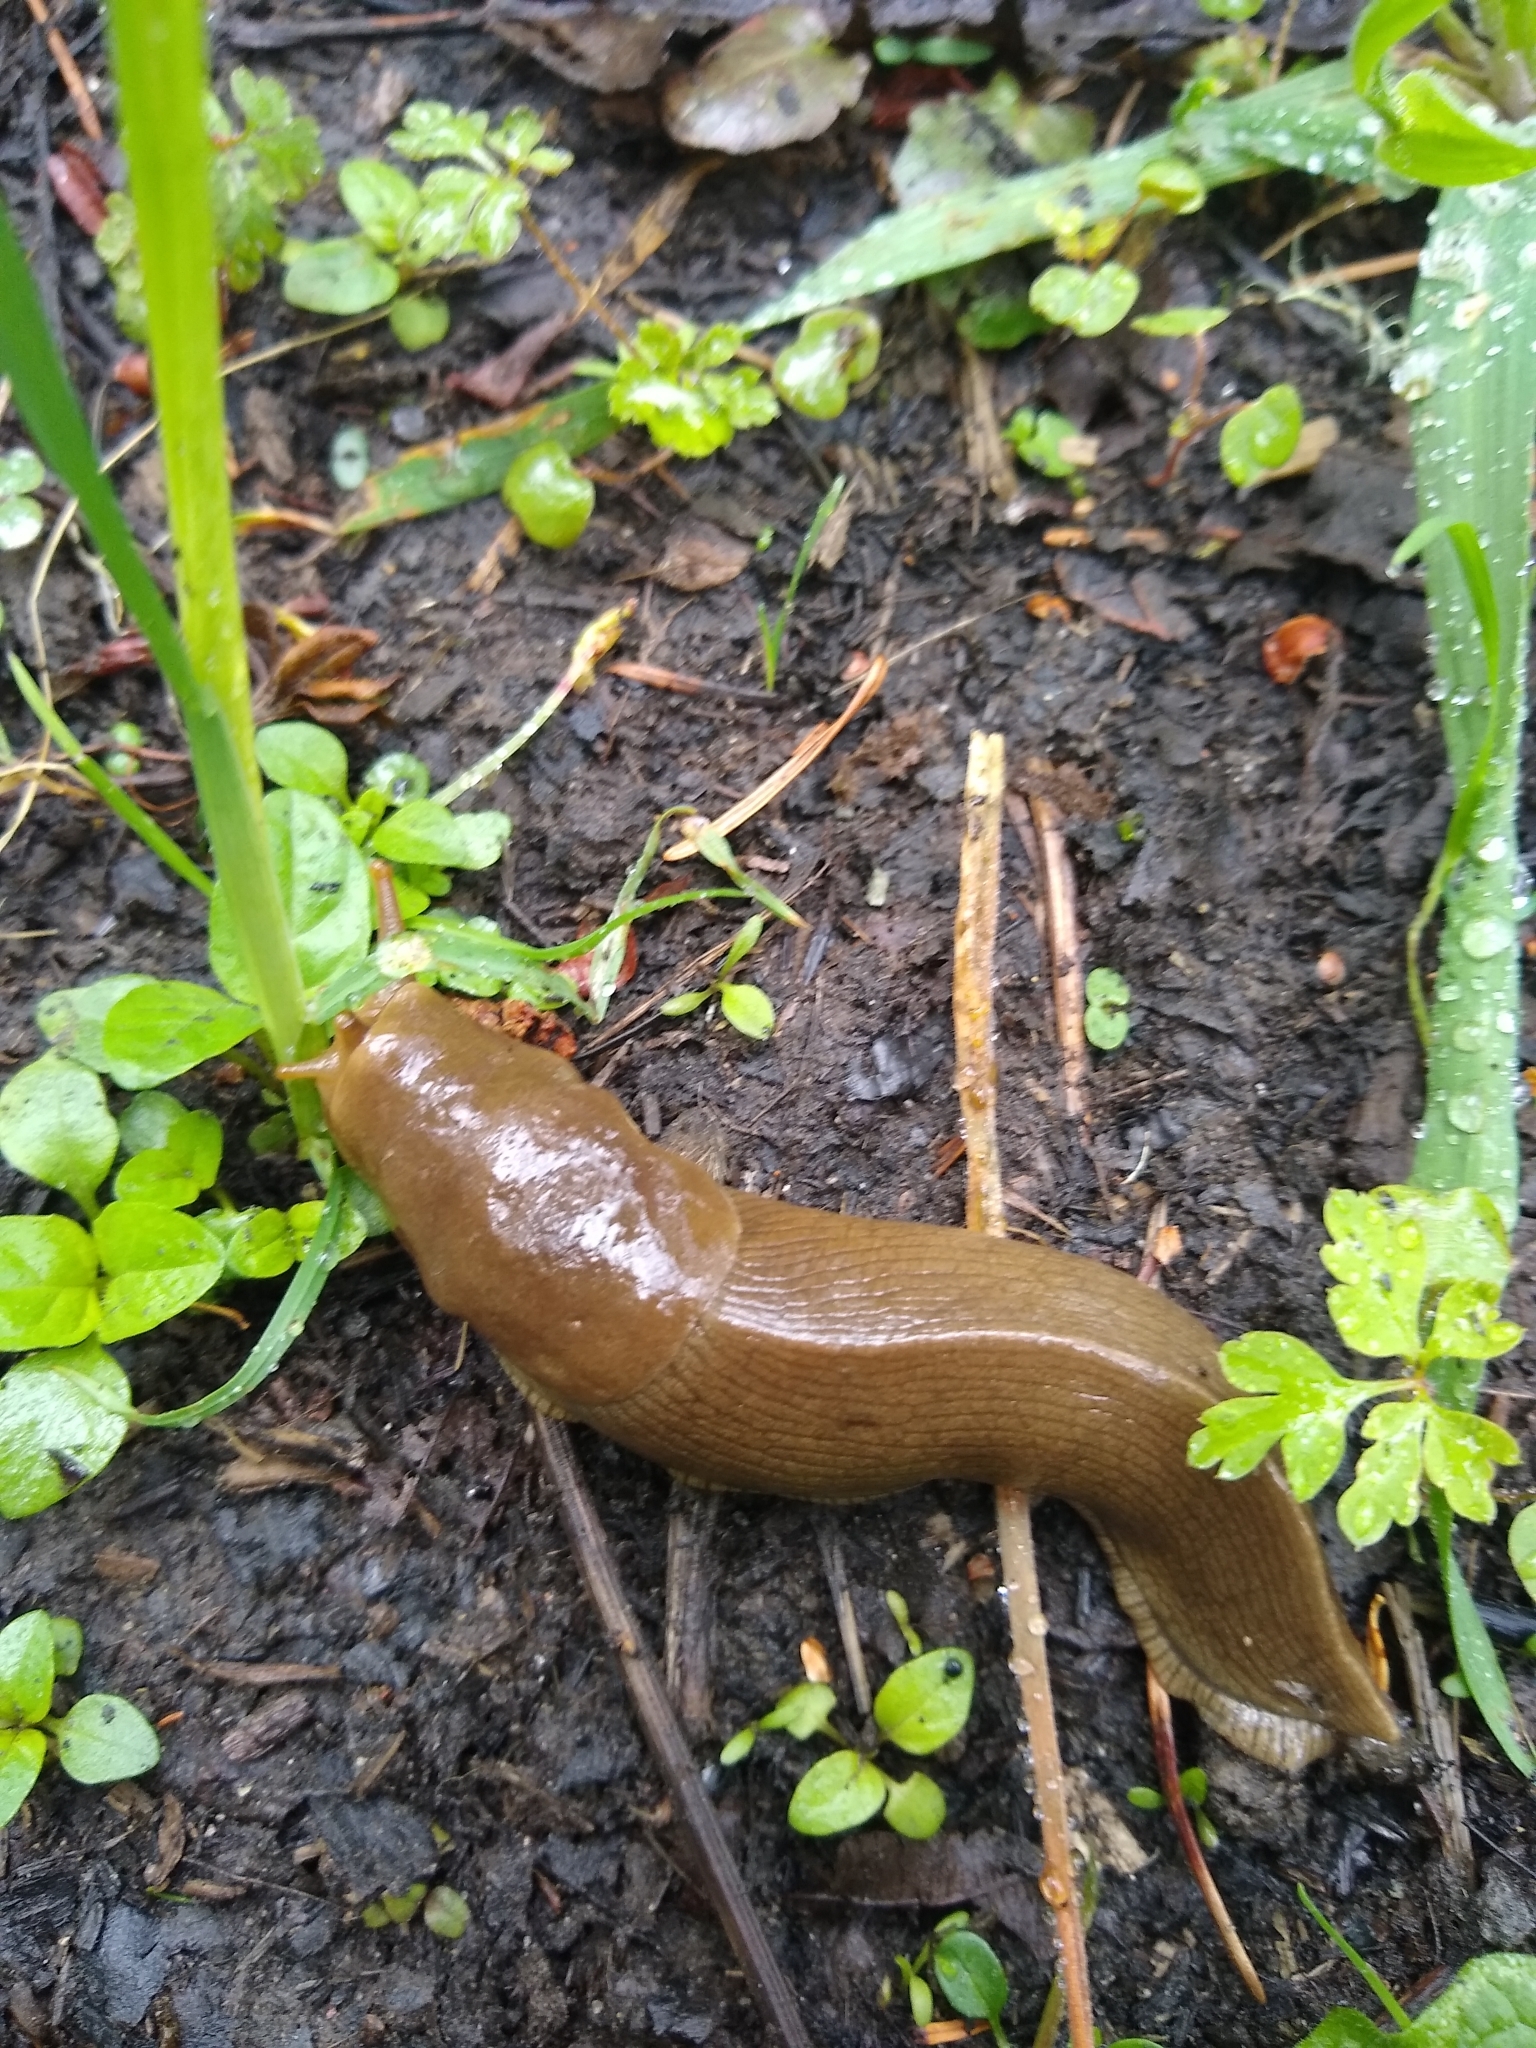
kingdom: Animalia
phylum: Mollusca
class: Gastropoda
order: Stylommatophora
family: Ariolimacidae
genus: Ariolimax
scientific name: Ariolimax columbianus
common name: Pacific banana slug
